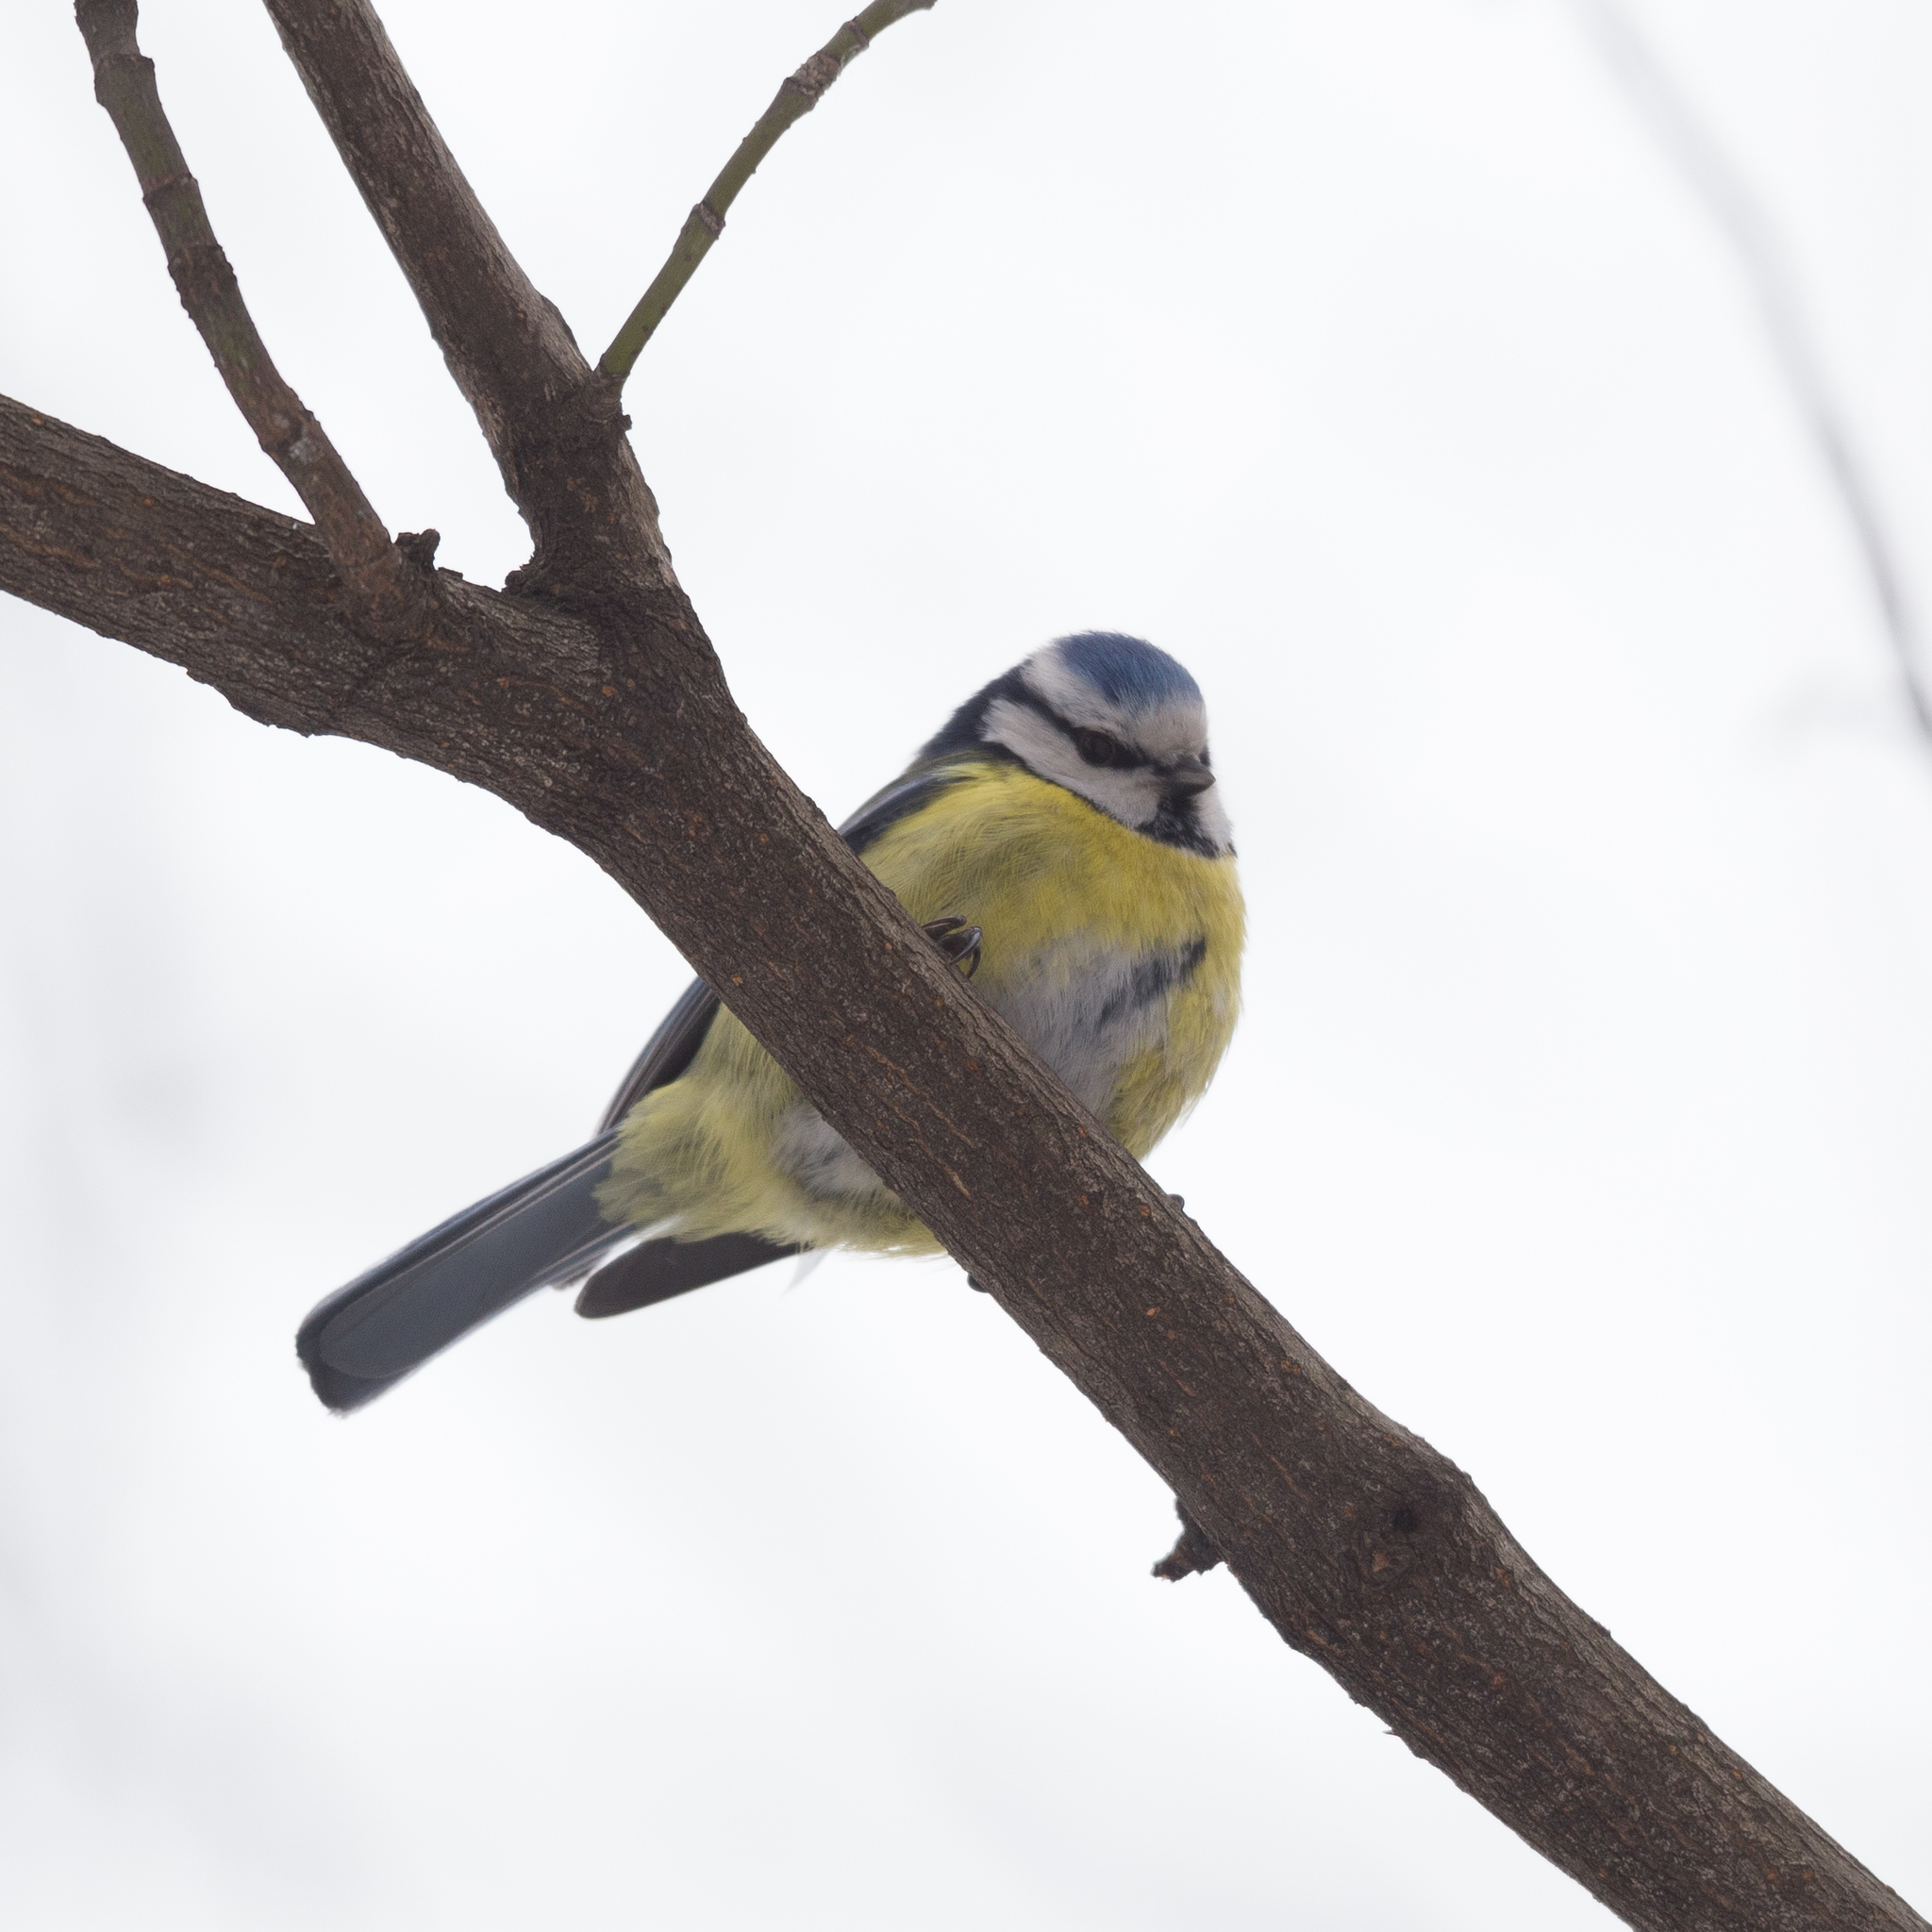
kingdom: Animalia
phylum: Chordata
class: Aves
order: Passeriformes
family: Paridae
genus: Cyanistes
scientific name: Cyanistes caeruleus
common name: Eurasian blue tit
